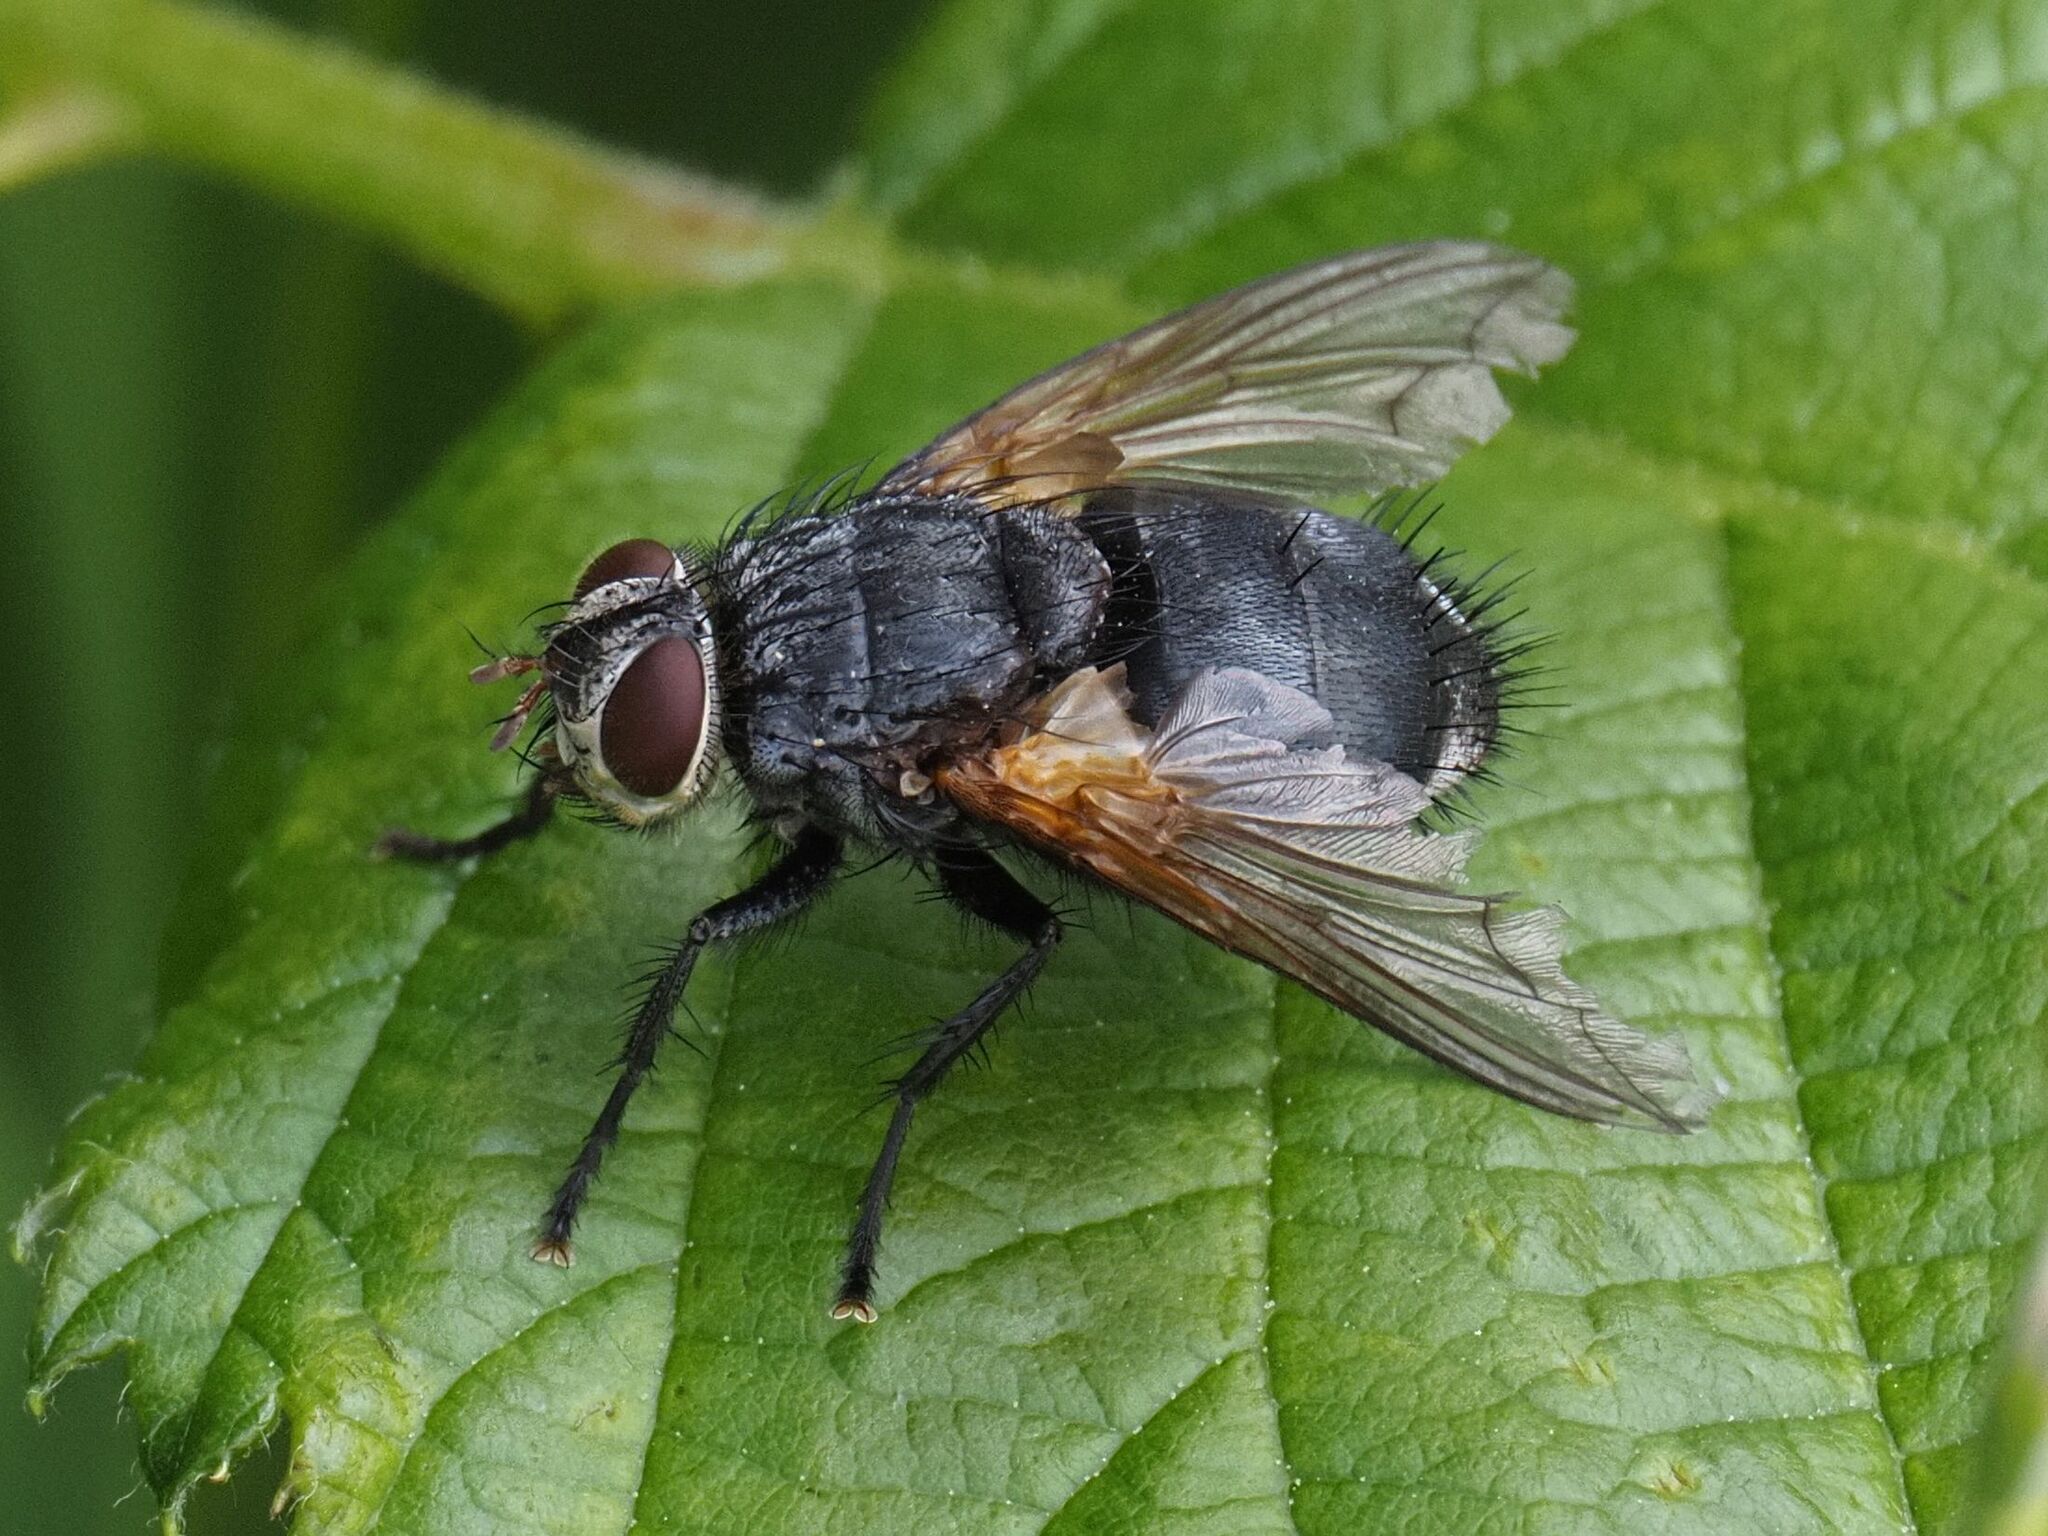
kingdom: Animalia
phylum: Arthropoda
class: Insecta
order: Diptera
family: Tachinidae
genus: Nemoraea
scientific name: Nemoraea pellucida
